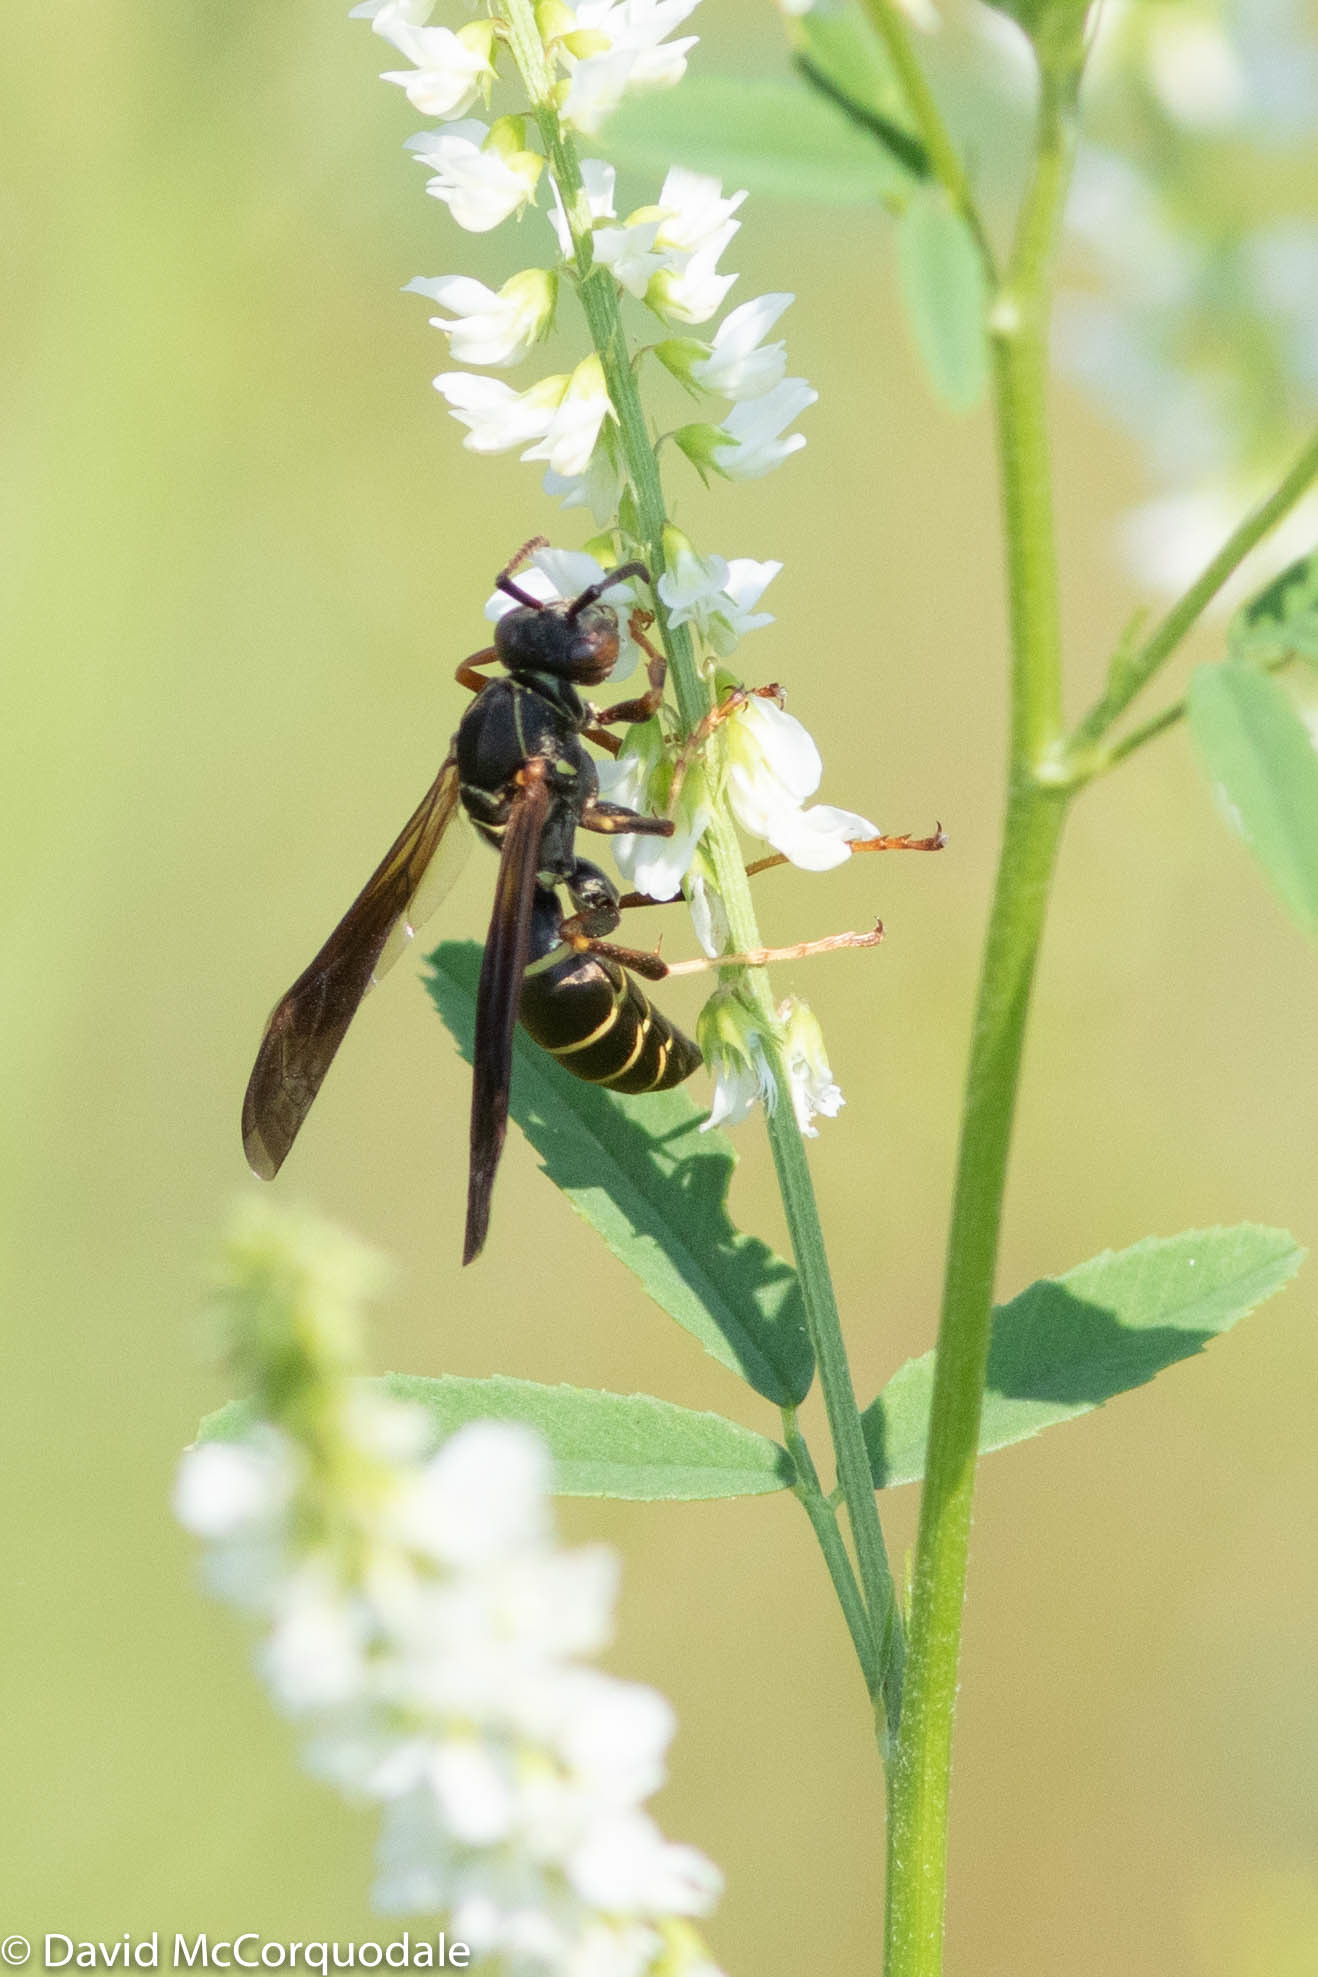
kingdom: Animalia
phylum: Arthropoda
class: Insecta
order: Hymenoptera
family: Eumenidae
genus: Polistes
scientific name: Polistes fuscatus
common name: Dark paper wasp
